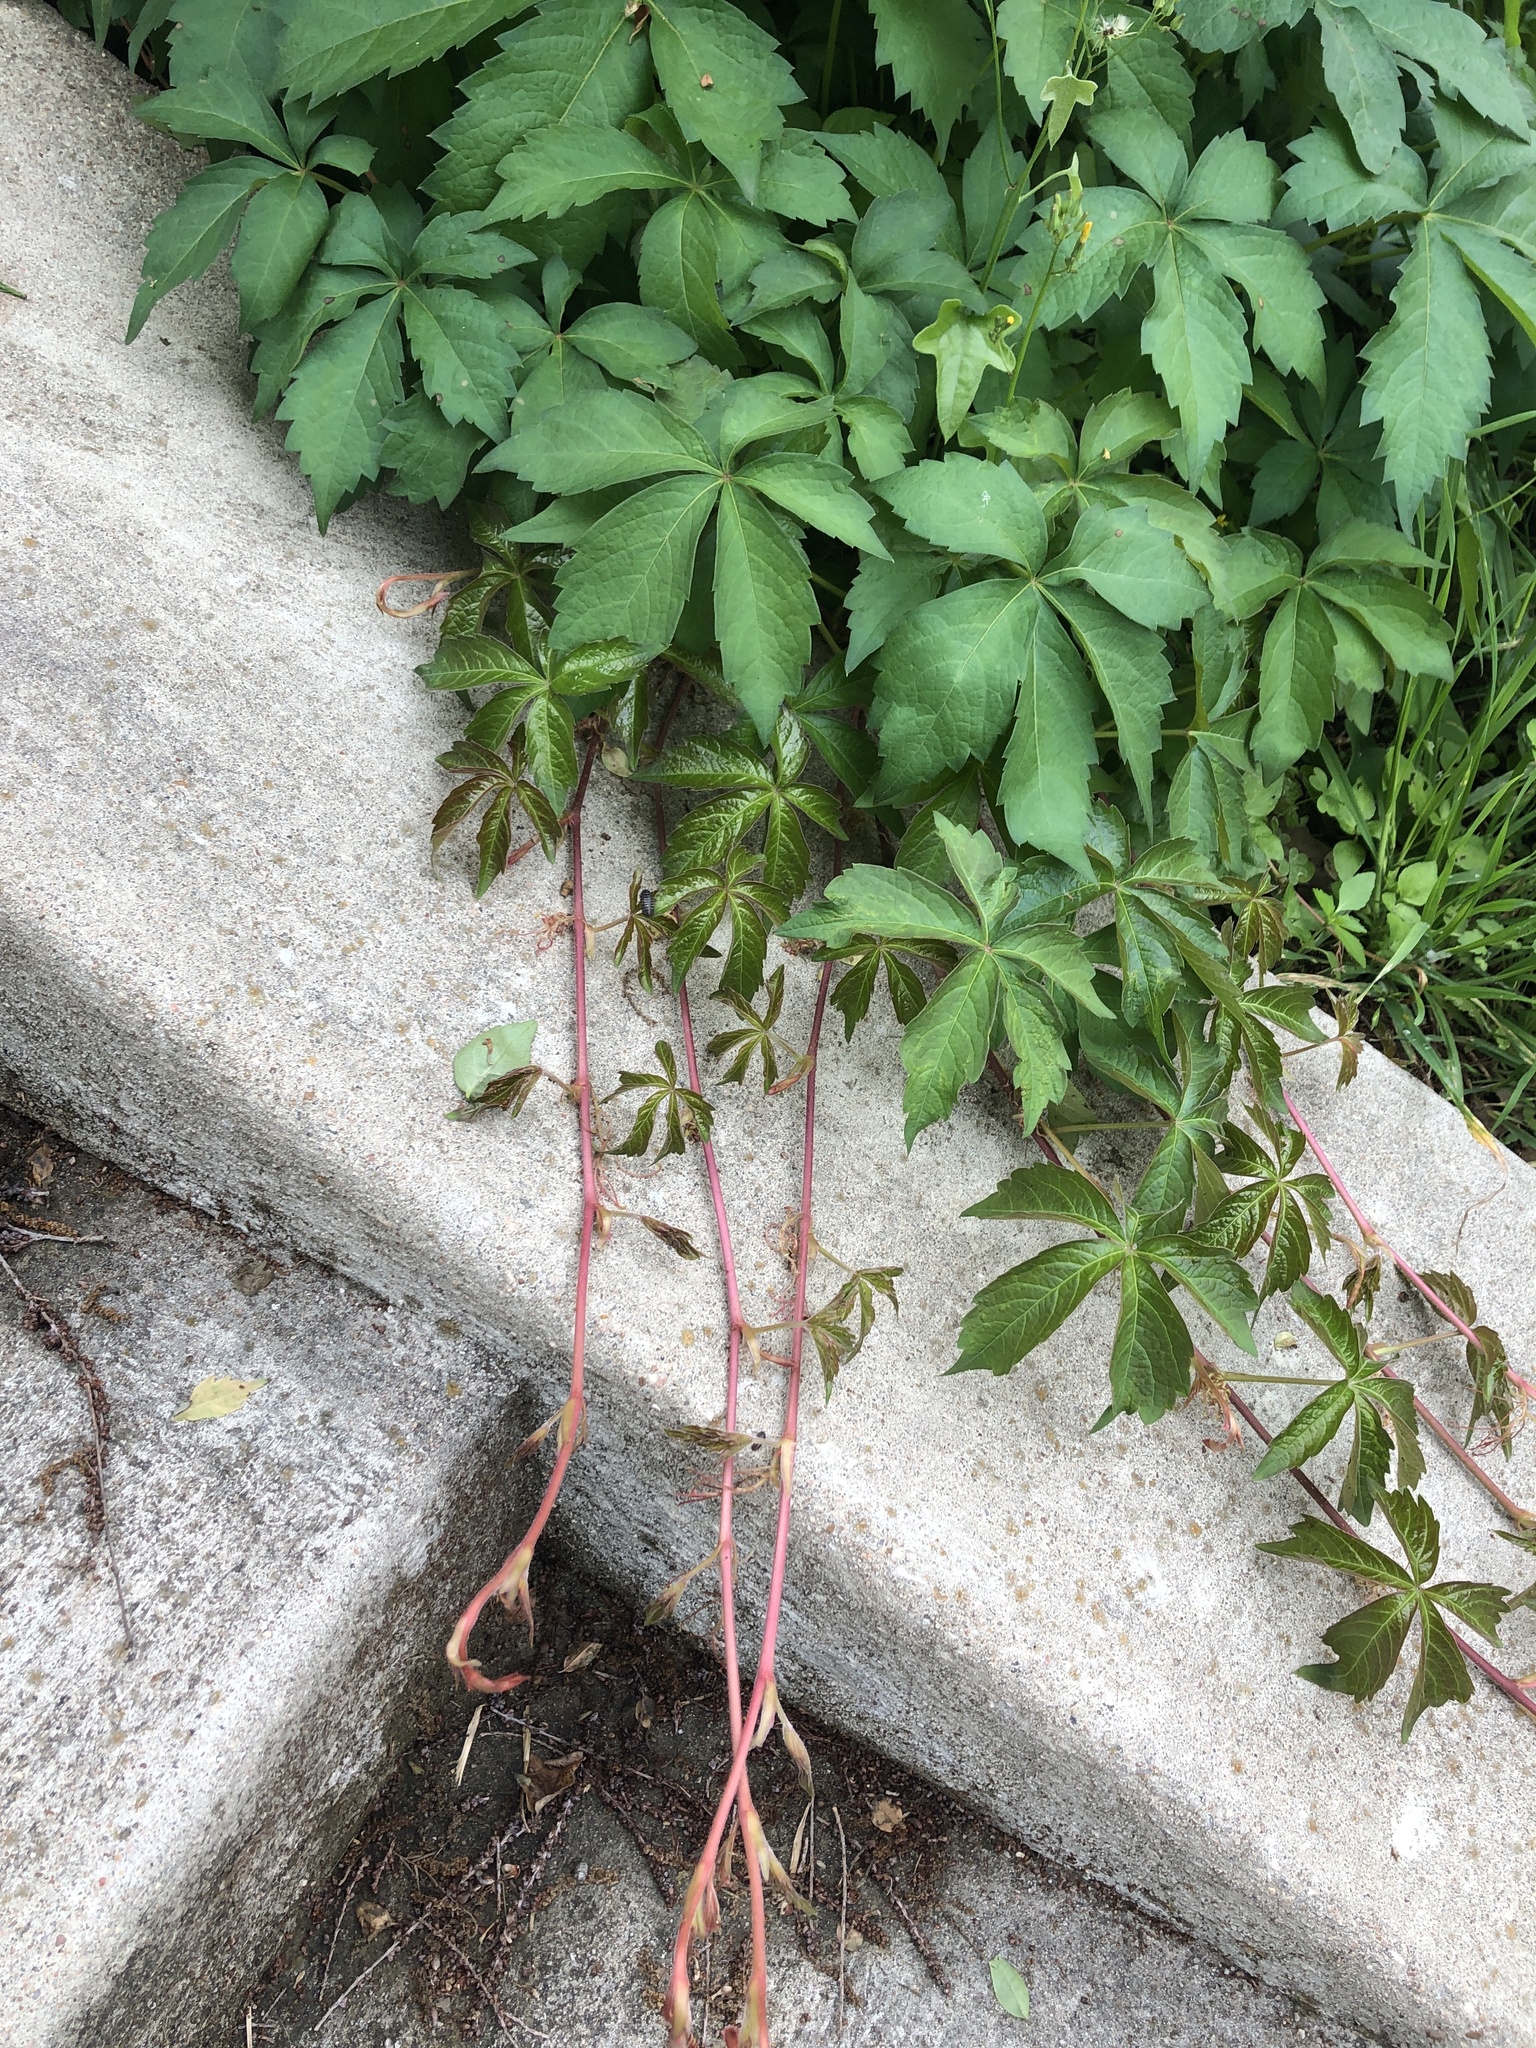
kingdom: Plantae
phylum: Tracheophyta
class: Magnoliopsida
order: Vitales
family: Vitaceae
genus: Parthenocissus
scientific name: Parthenocissus quinquefolia
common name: Virginia-creeper
